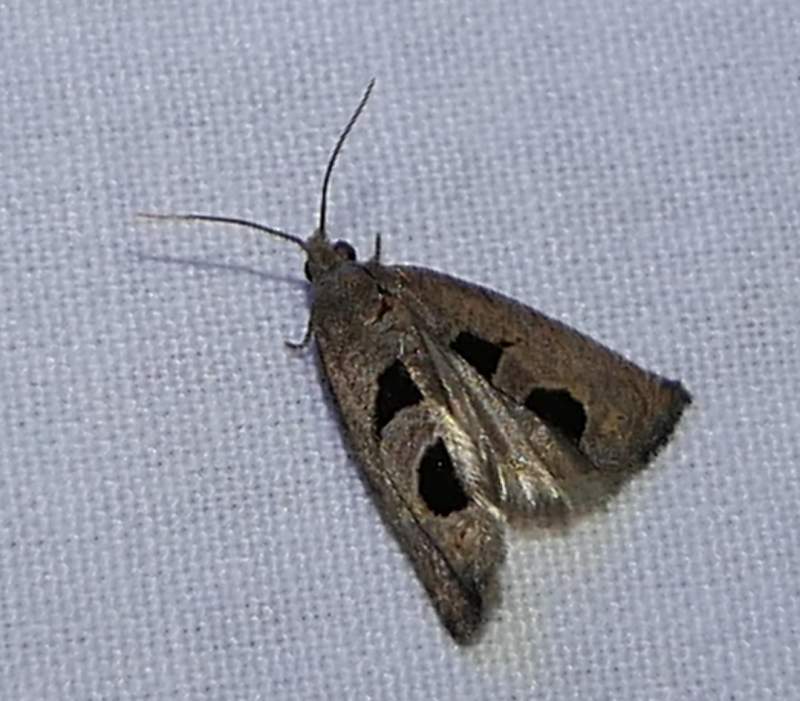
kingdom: Animalia
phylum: Arthropoda
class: Insecta
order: Lepidoptera
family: Tortricidae
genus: Eucosma
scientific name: Eucosma tomonana
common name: Aster-head eucosma moth
